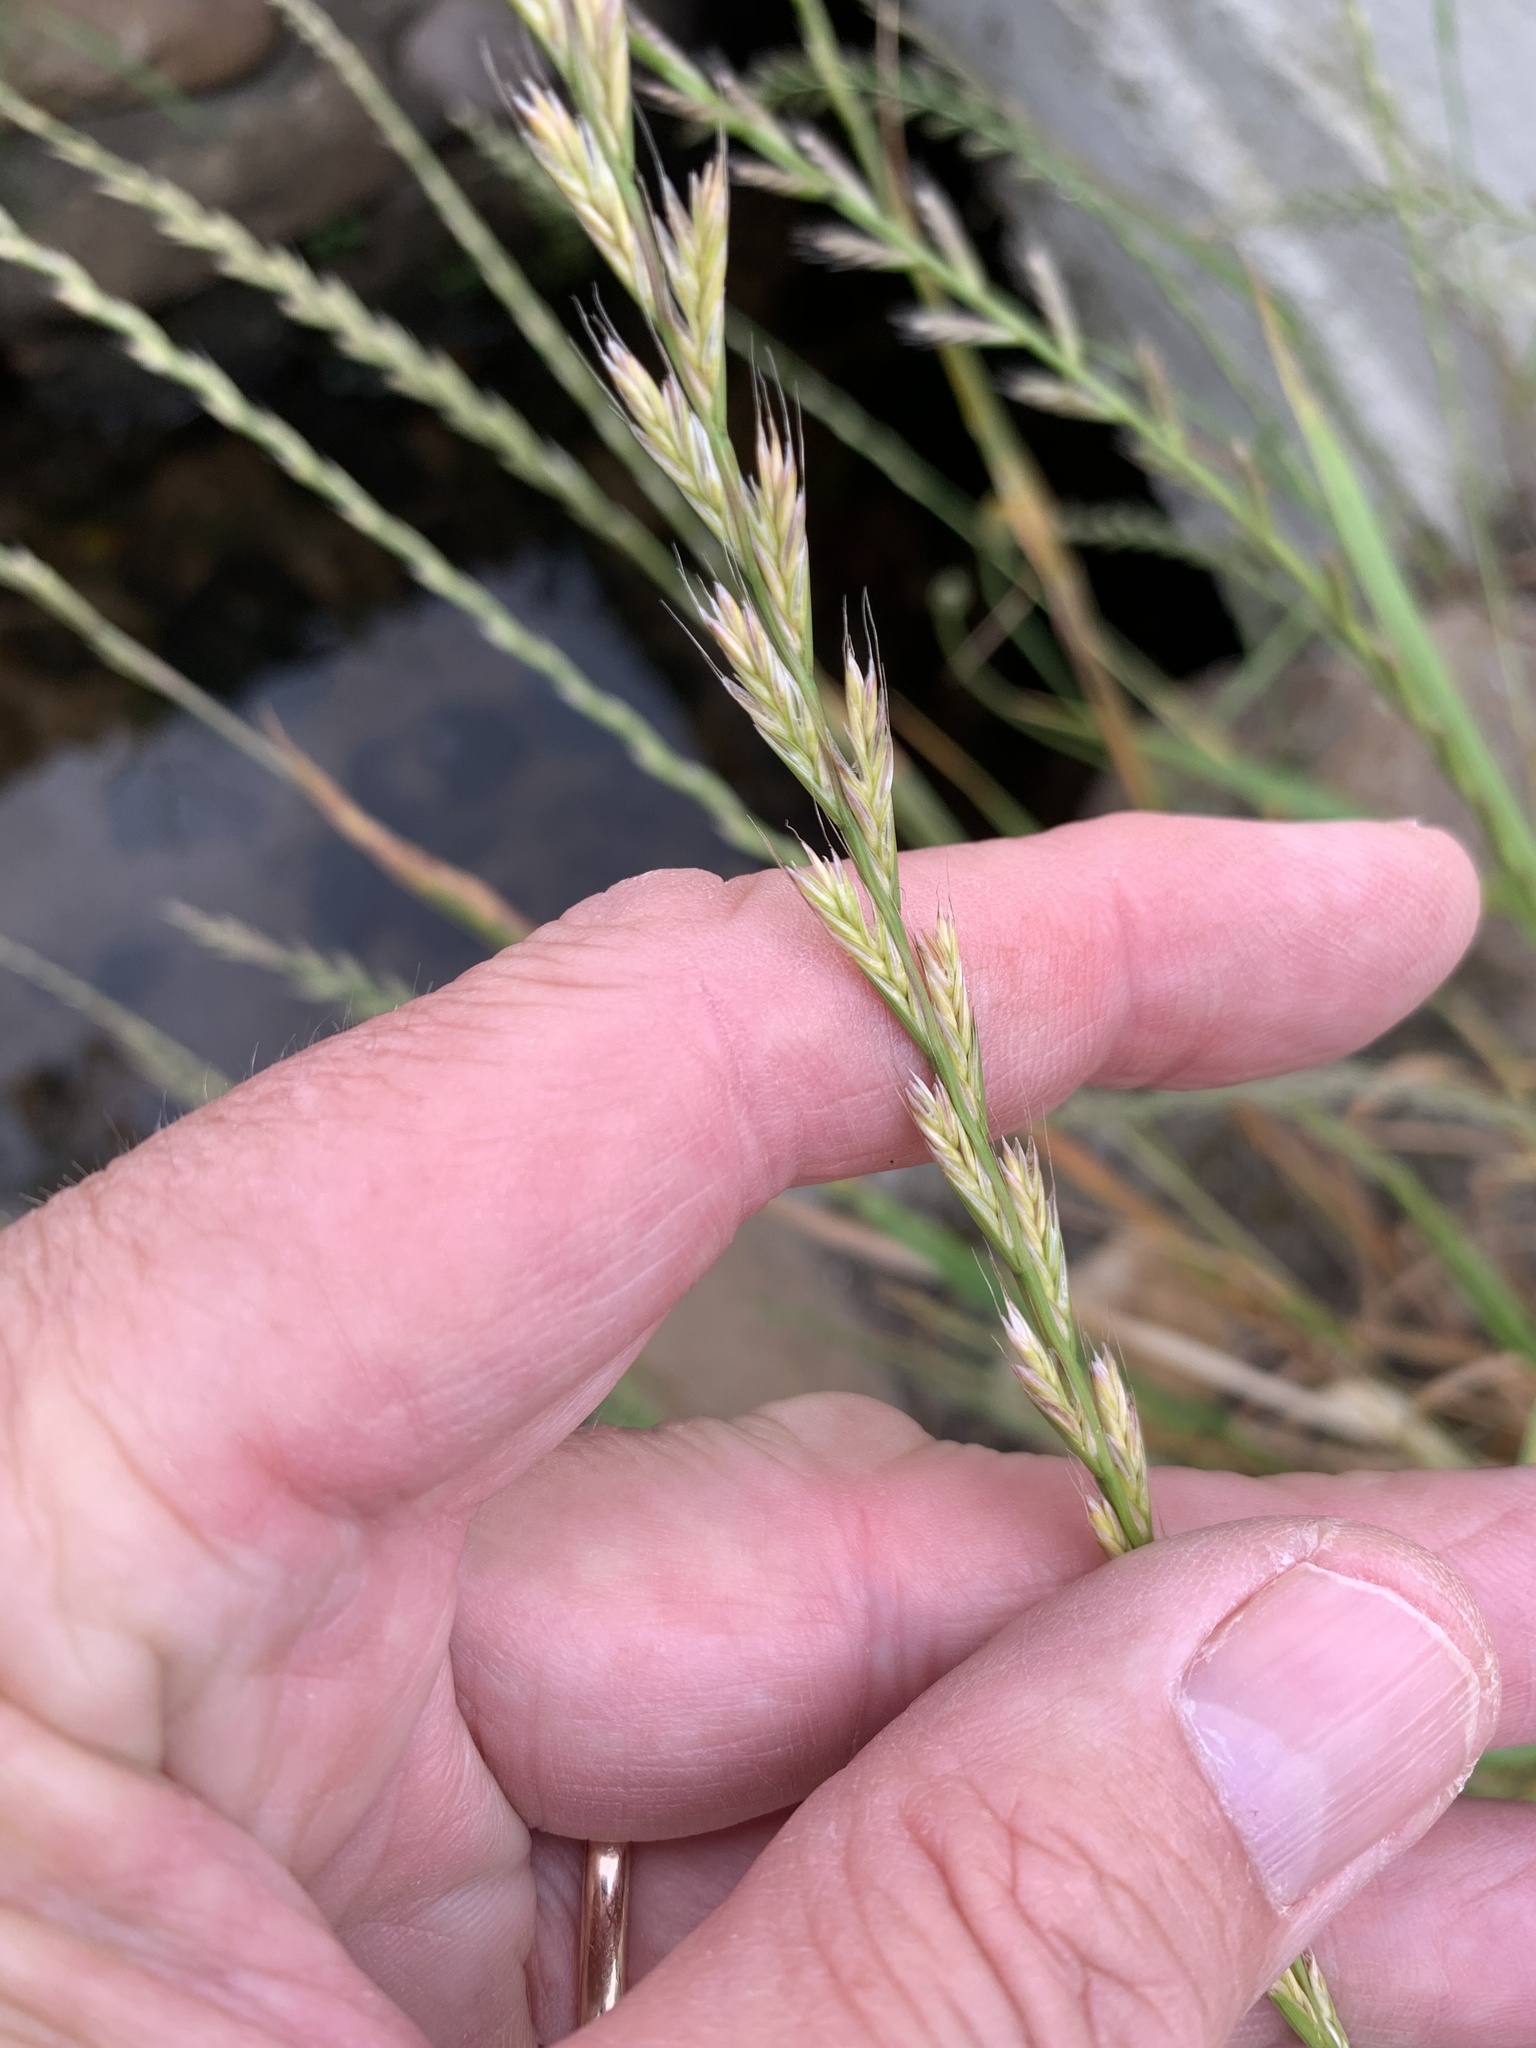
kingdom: Plantae
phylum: Tracheophyta
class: Liliopsida
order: Poales
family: Poaceae
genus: Lolium
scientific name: Lolium multiflorum
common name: Annual ryegrass
